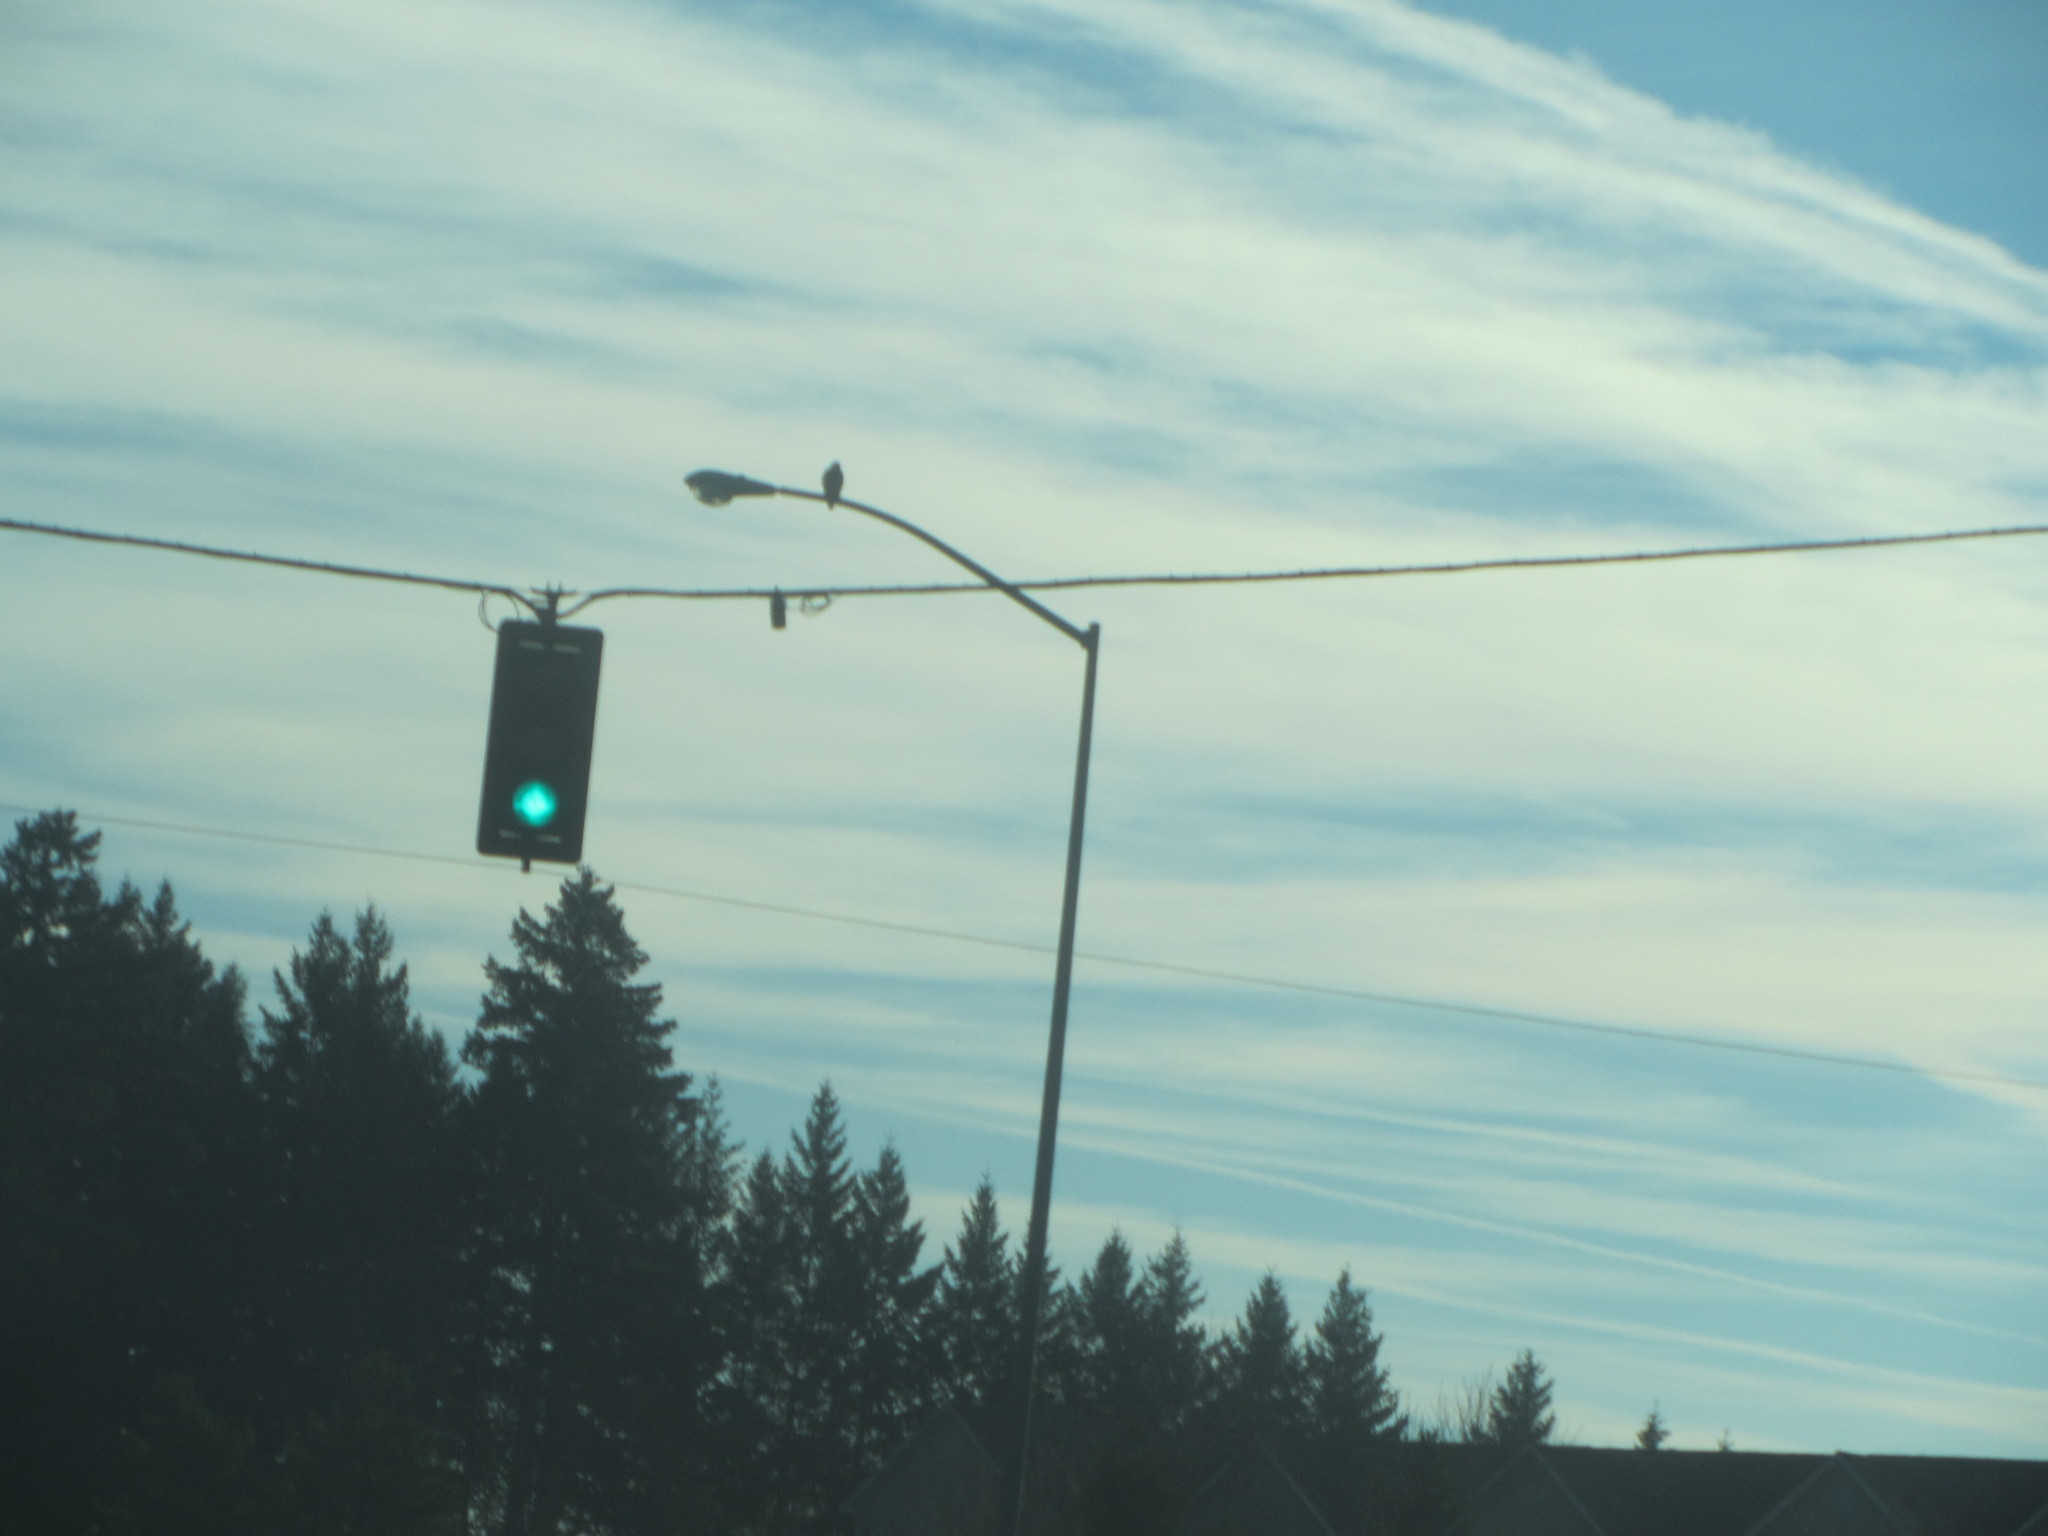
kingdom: Animalia
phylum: Chordata
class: Aves
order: Accipitriformes
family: Accipitridae
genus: Buteo
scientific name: Buteo jamaicensis
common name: Red-tailed hawk
